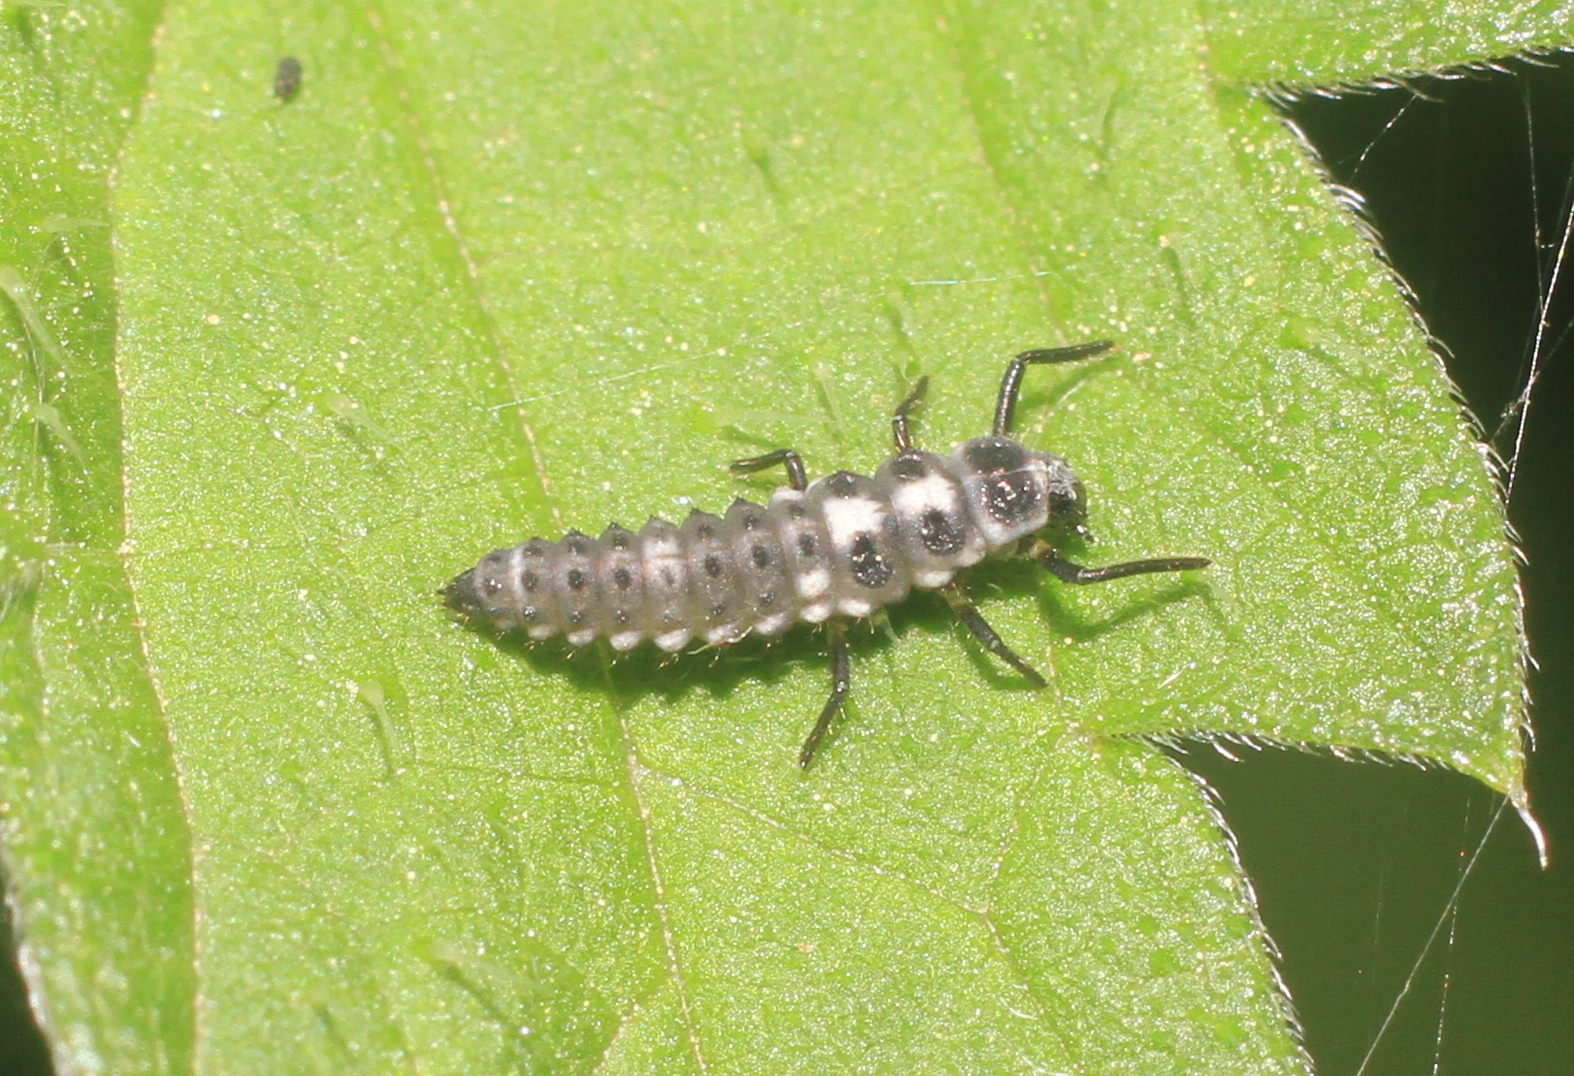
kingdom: Animalia
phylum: Arthropoda
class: Insecta
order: Coleoptera
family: Coccinellidae
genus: Propylaea
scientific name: Propylaea quatuordecimpunctata
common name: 14-spotted ladybird beetle
